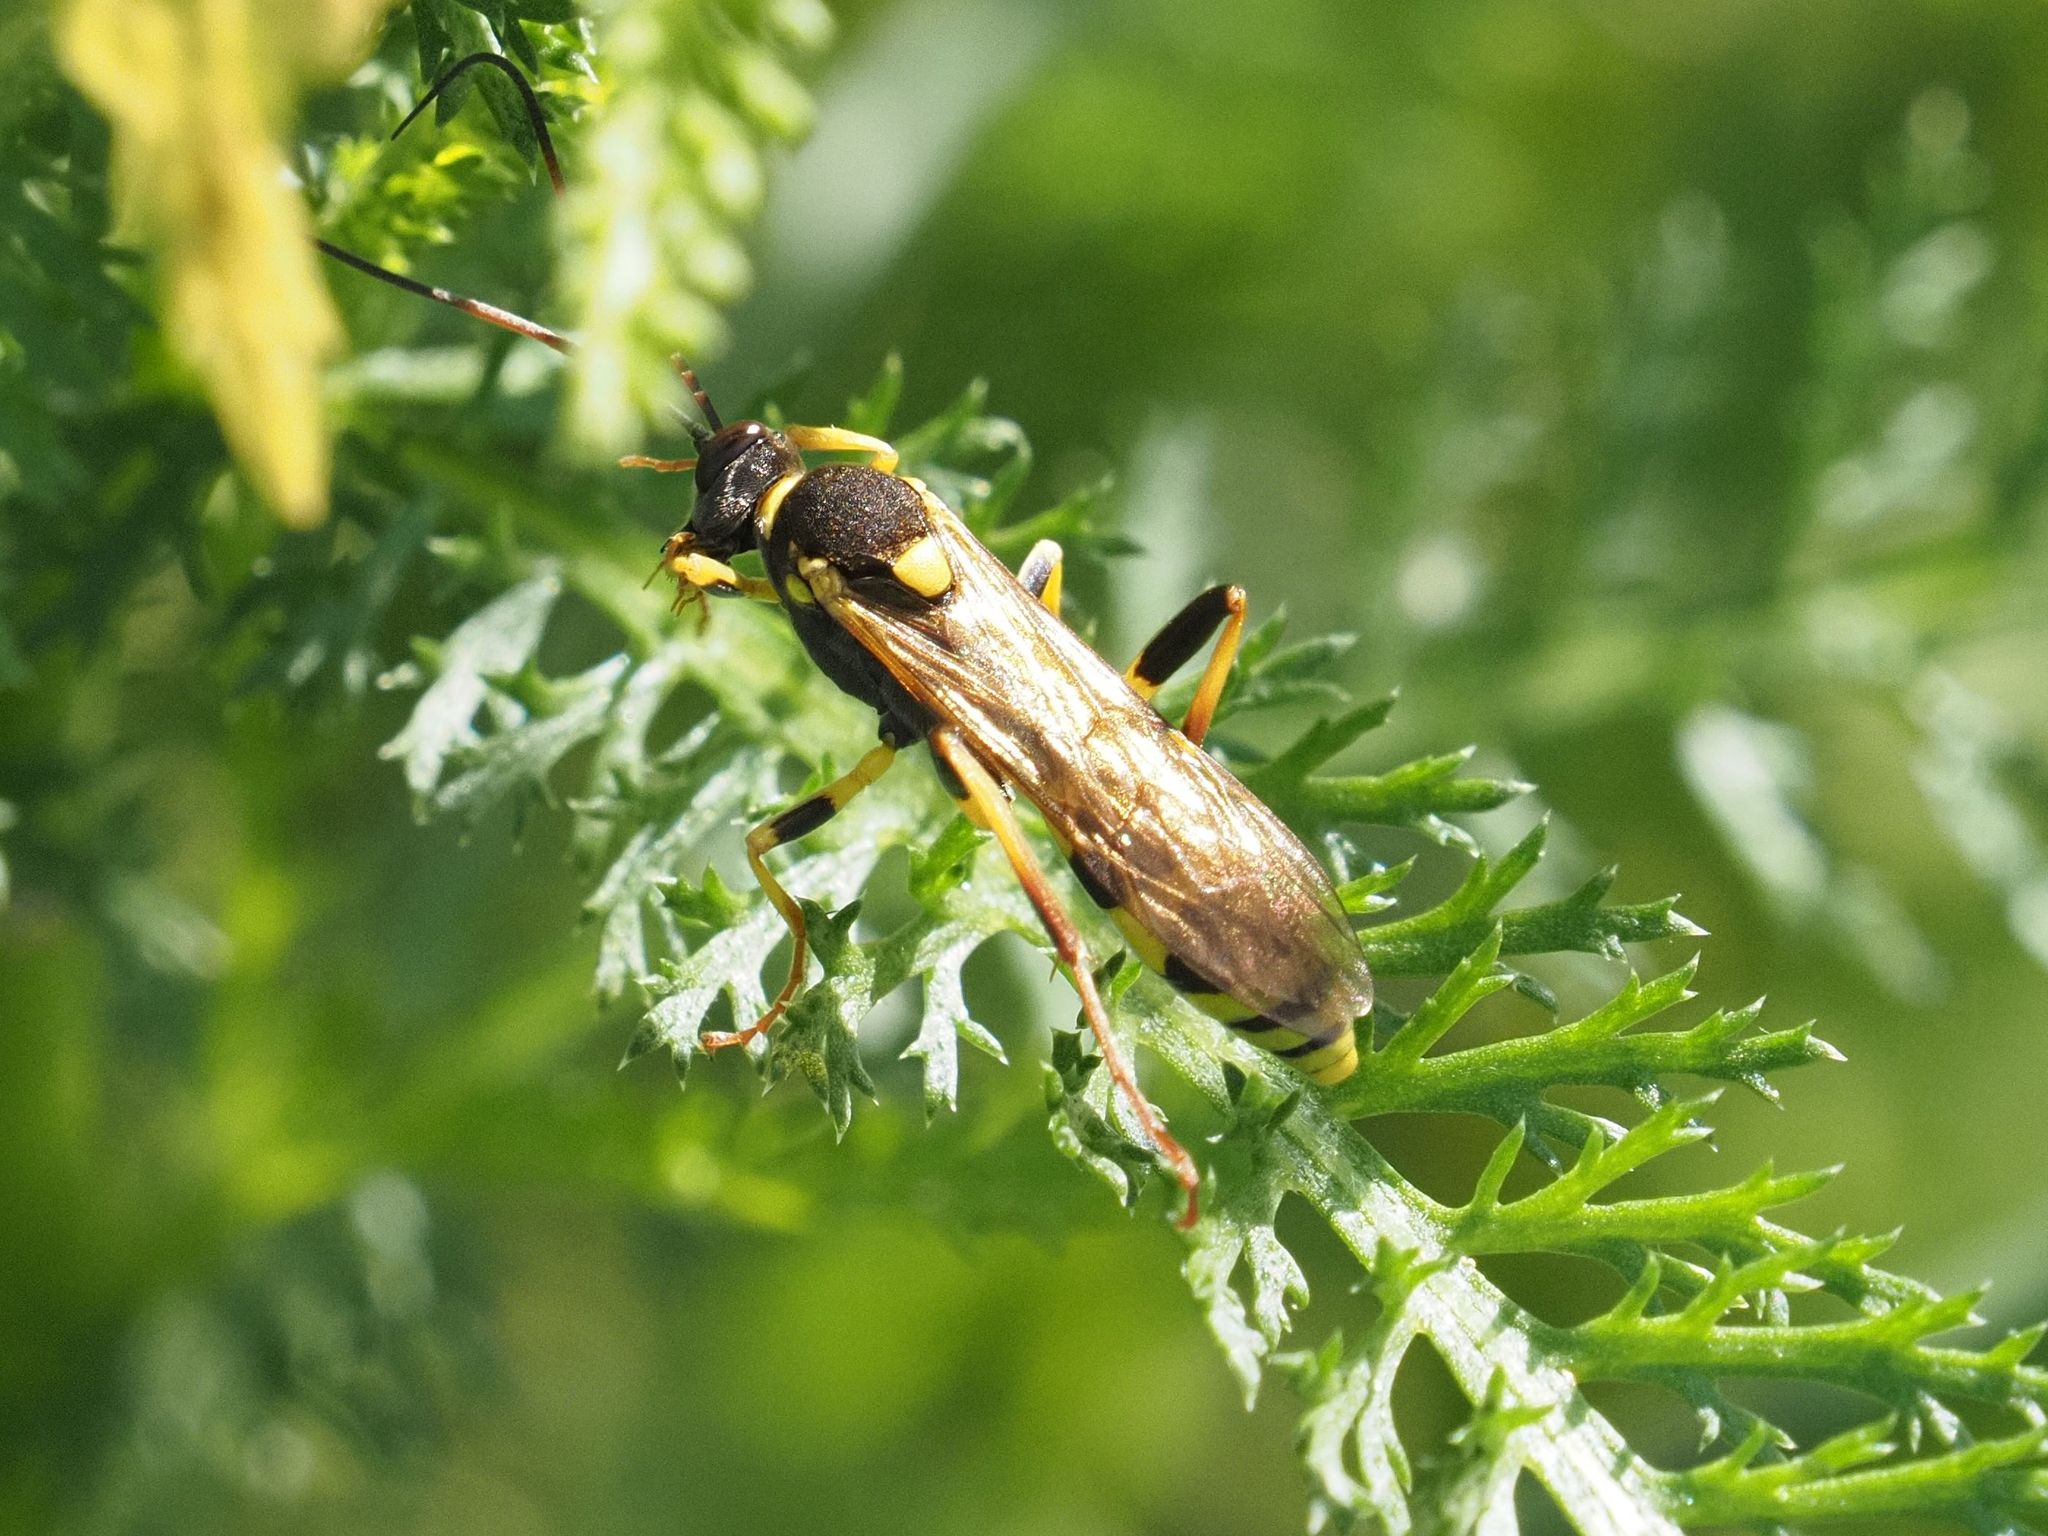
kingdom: Animalia
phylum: Arthropoda
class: Insecta
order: Hymenoptera
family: Ichneumonidae
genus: Amblyteles
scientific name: Amblyteles armatorius
